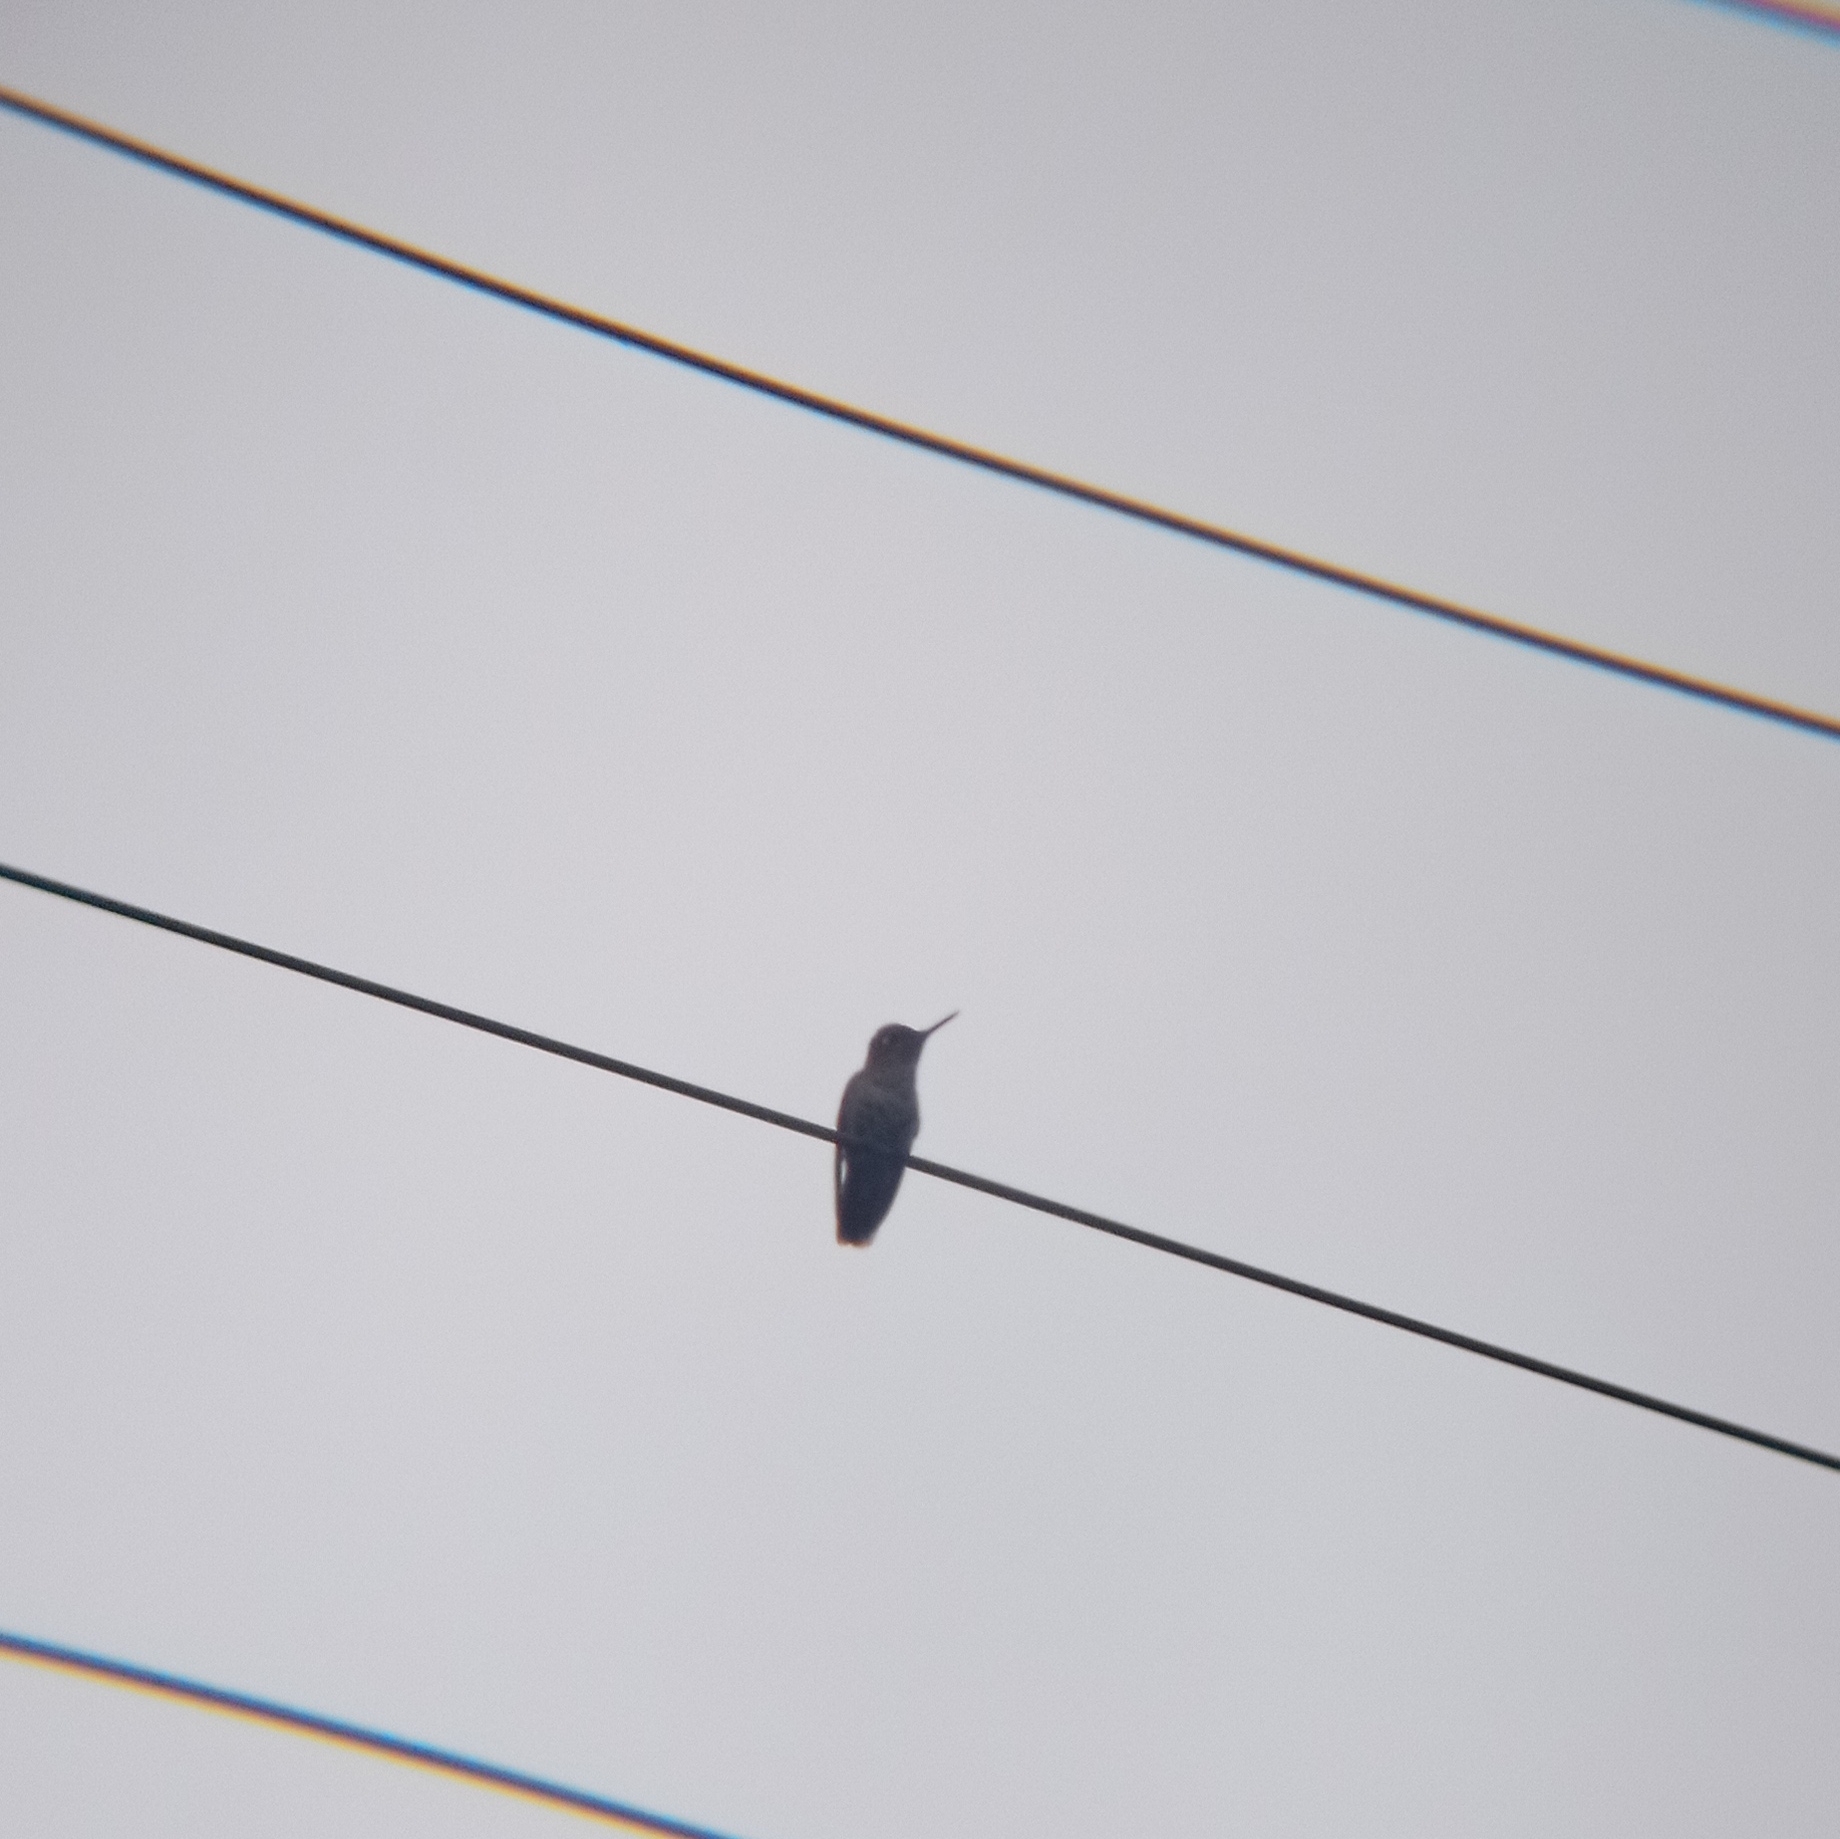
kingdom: Animalia
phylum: Chordata
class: Aves
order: Apodiformes
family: Trochilidae
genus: Sephanoides
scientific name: Sephanoides sephaniodes
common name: Green-backed firecrown
